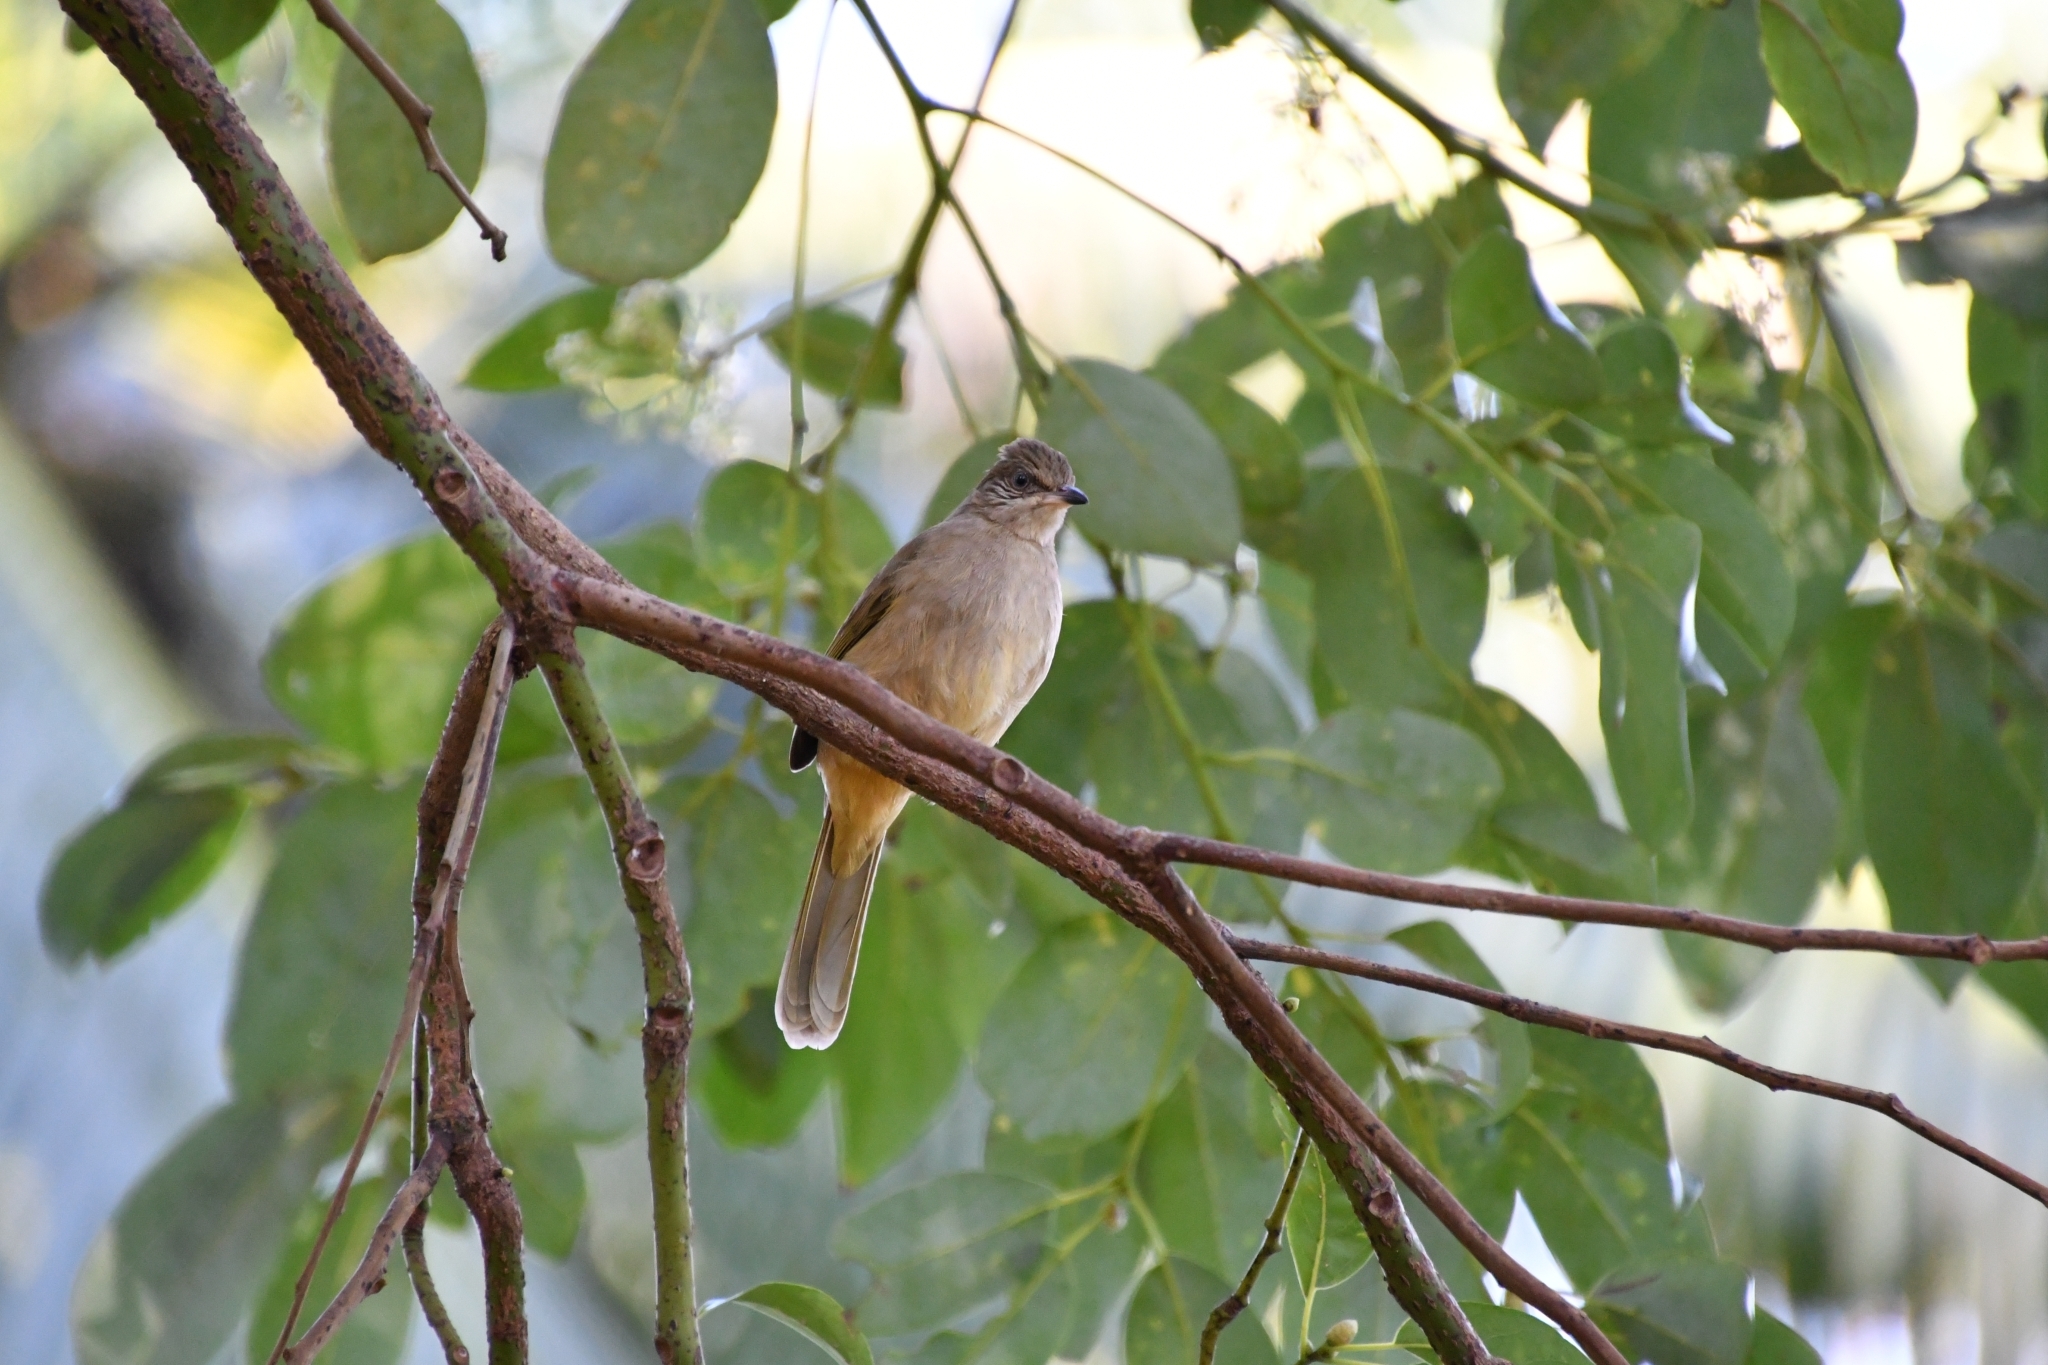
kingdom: Animalia
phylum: Chordata
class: Aves
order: Passeriformes
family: Pycnonotidae
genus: Pycnonotus
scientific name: Pycnonotus blanfordi
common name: Streak-eared bulbul
